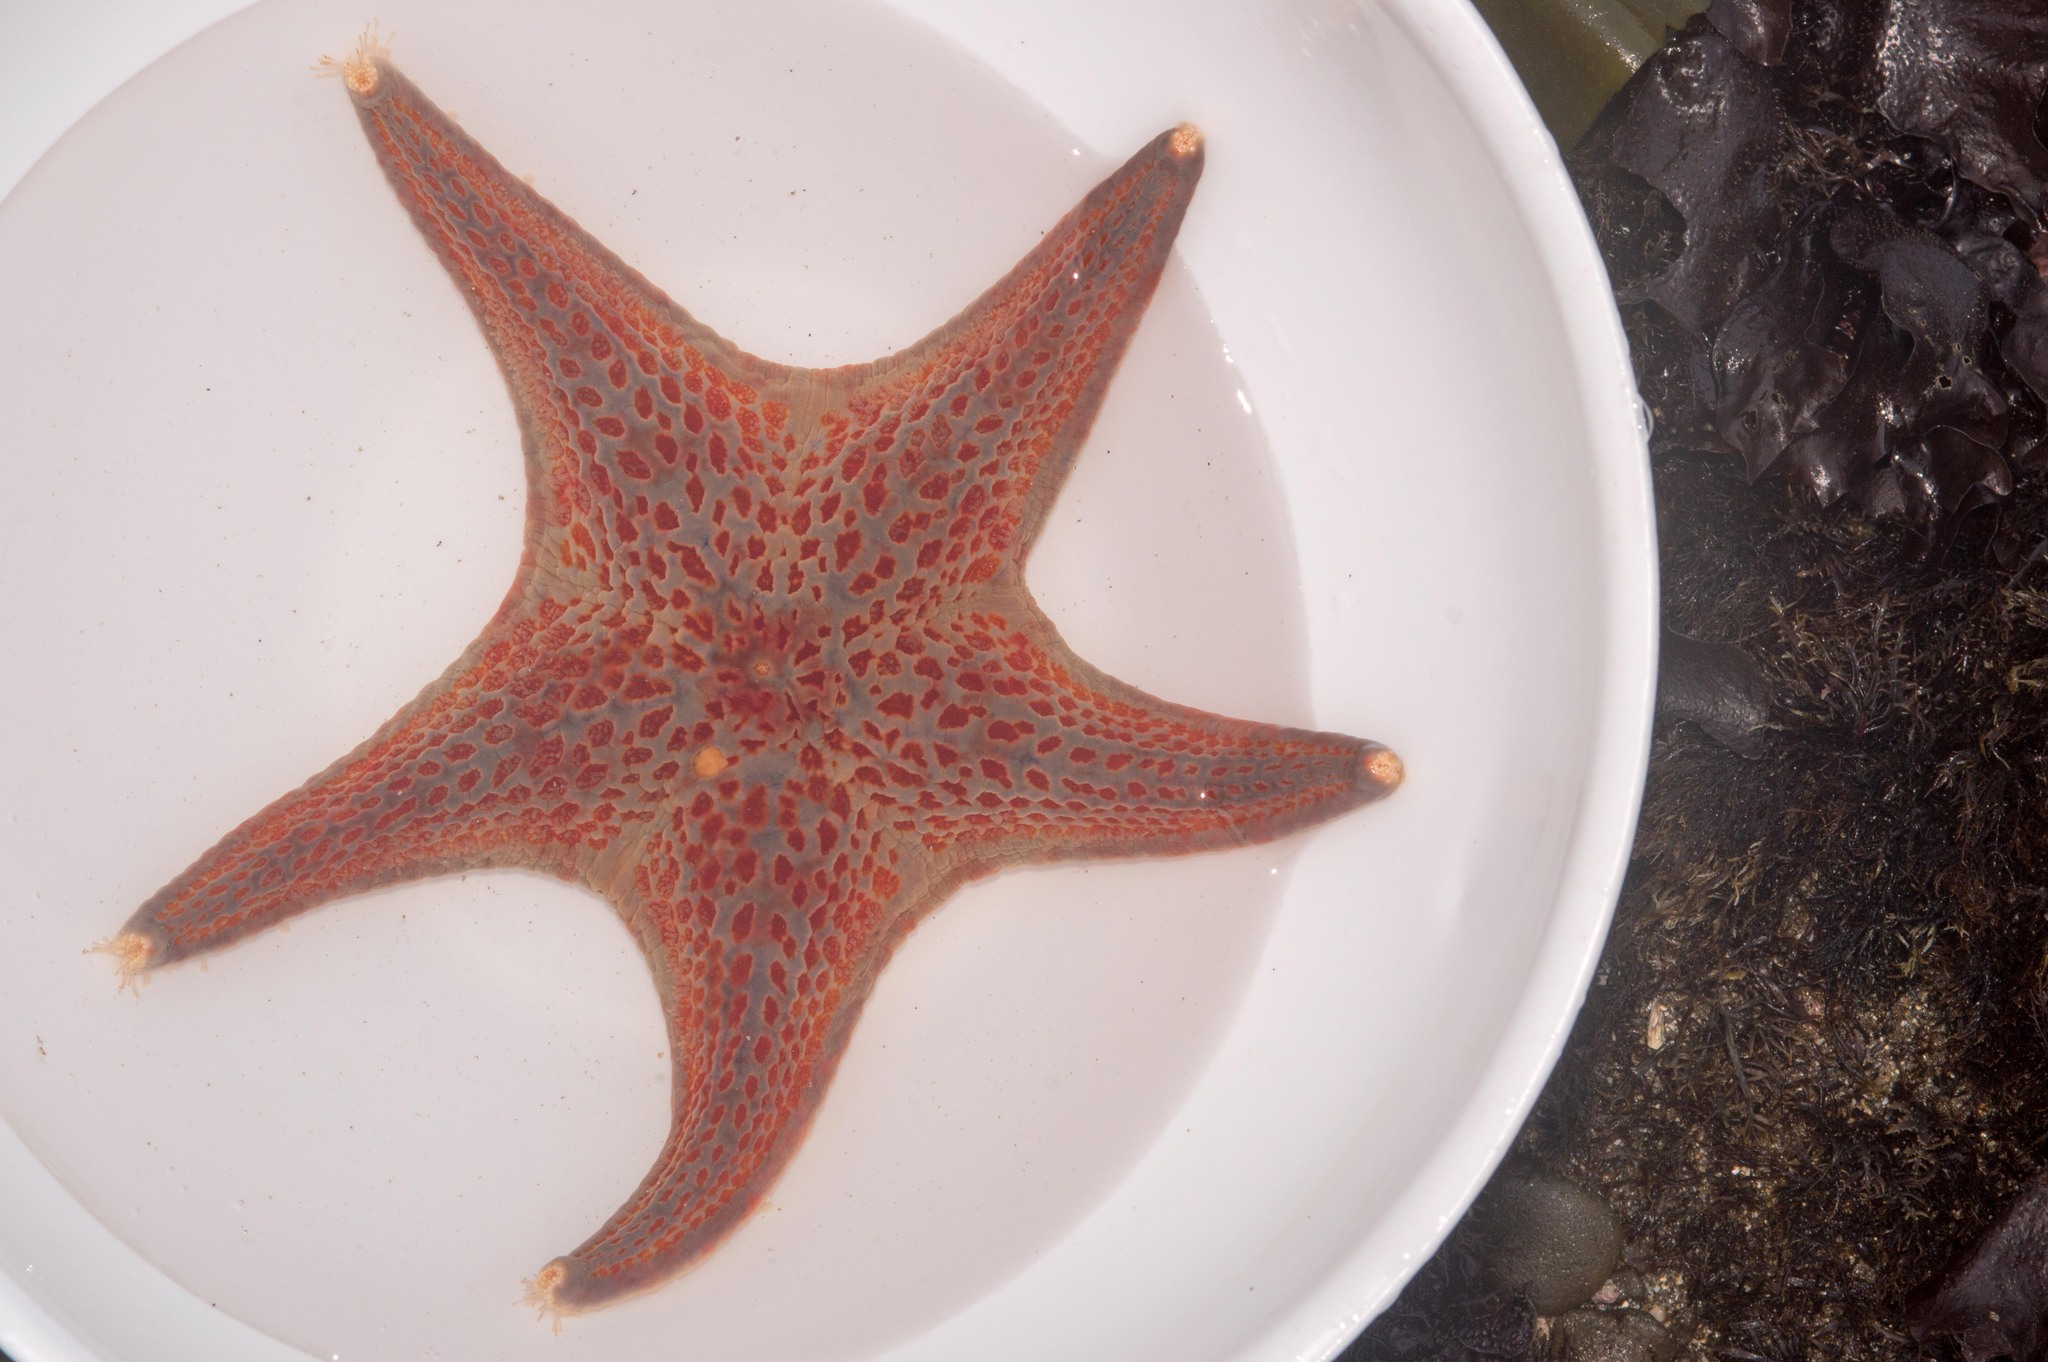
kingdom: Animalia
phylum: Echinodermata
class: Asteroidea
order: Valvatida
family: Asteropseidae
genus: Dermasterias
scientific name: Dermasterias imbricata
